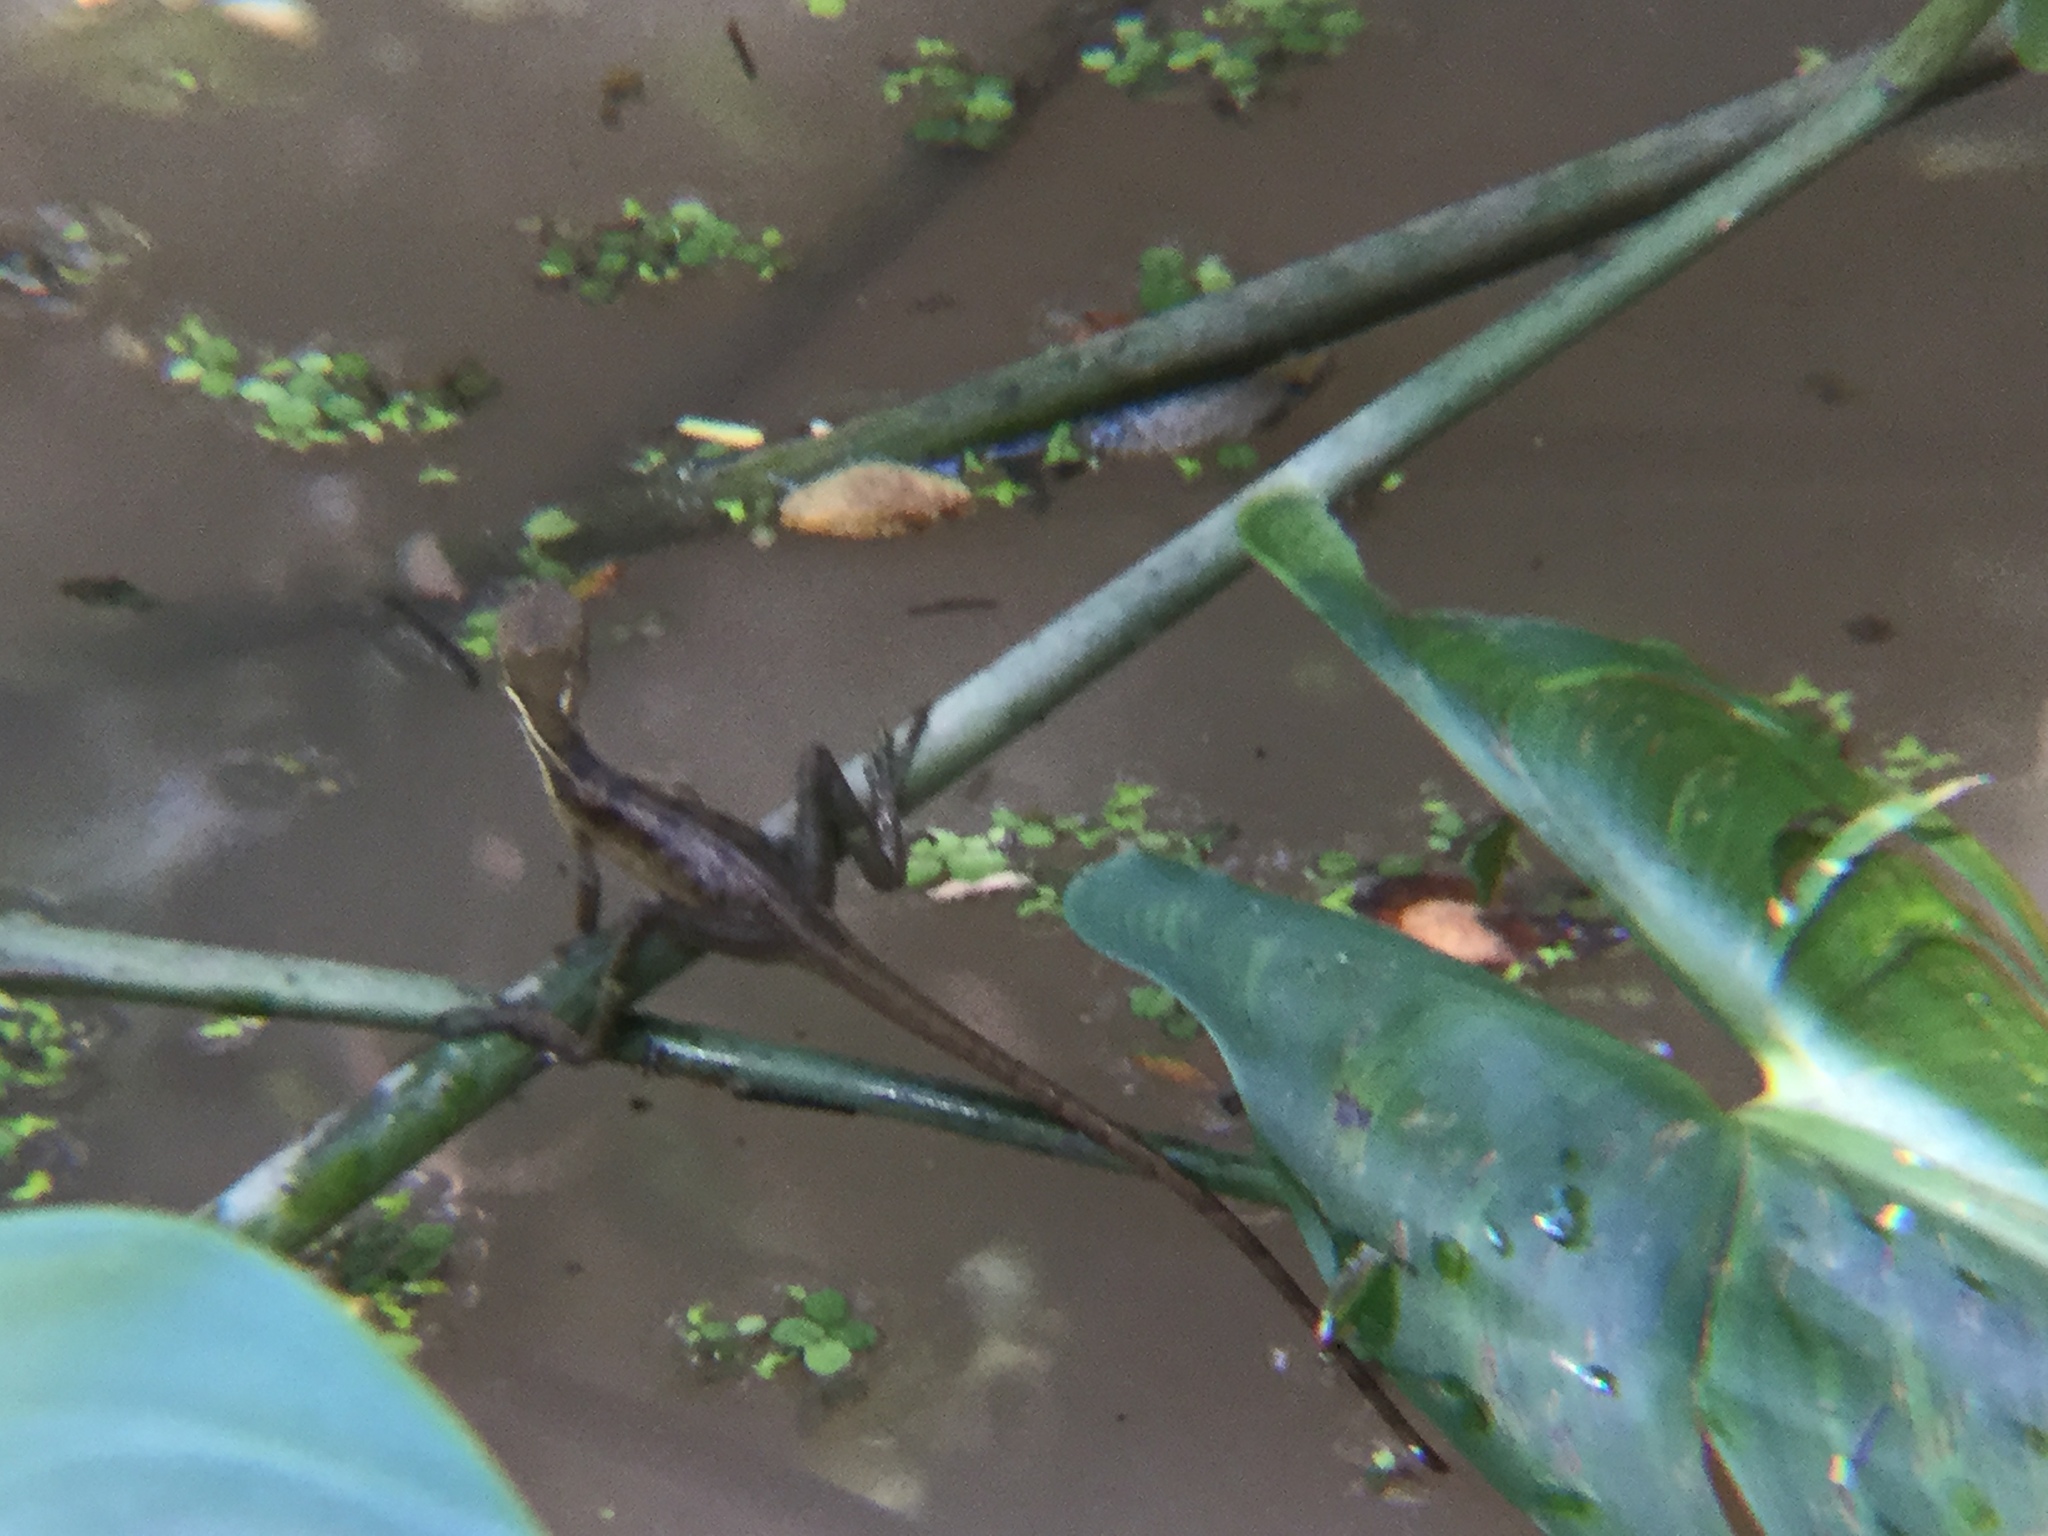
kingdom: Animalia
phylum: Chordata
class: Squamata
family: Corytophanidae
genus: Basiliscus
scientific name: Basiliscus vittatus
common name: Brown basilisk
